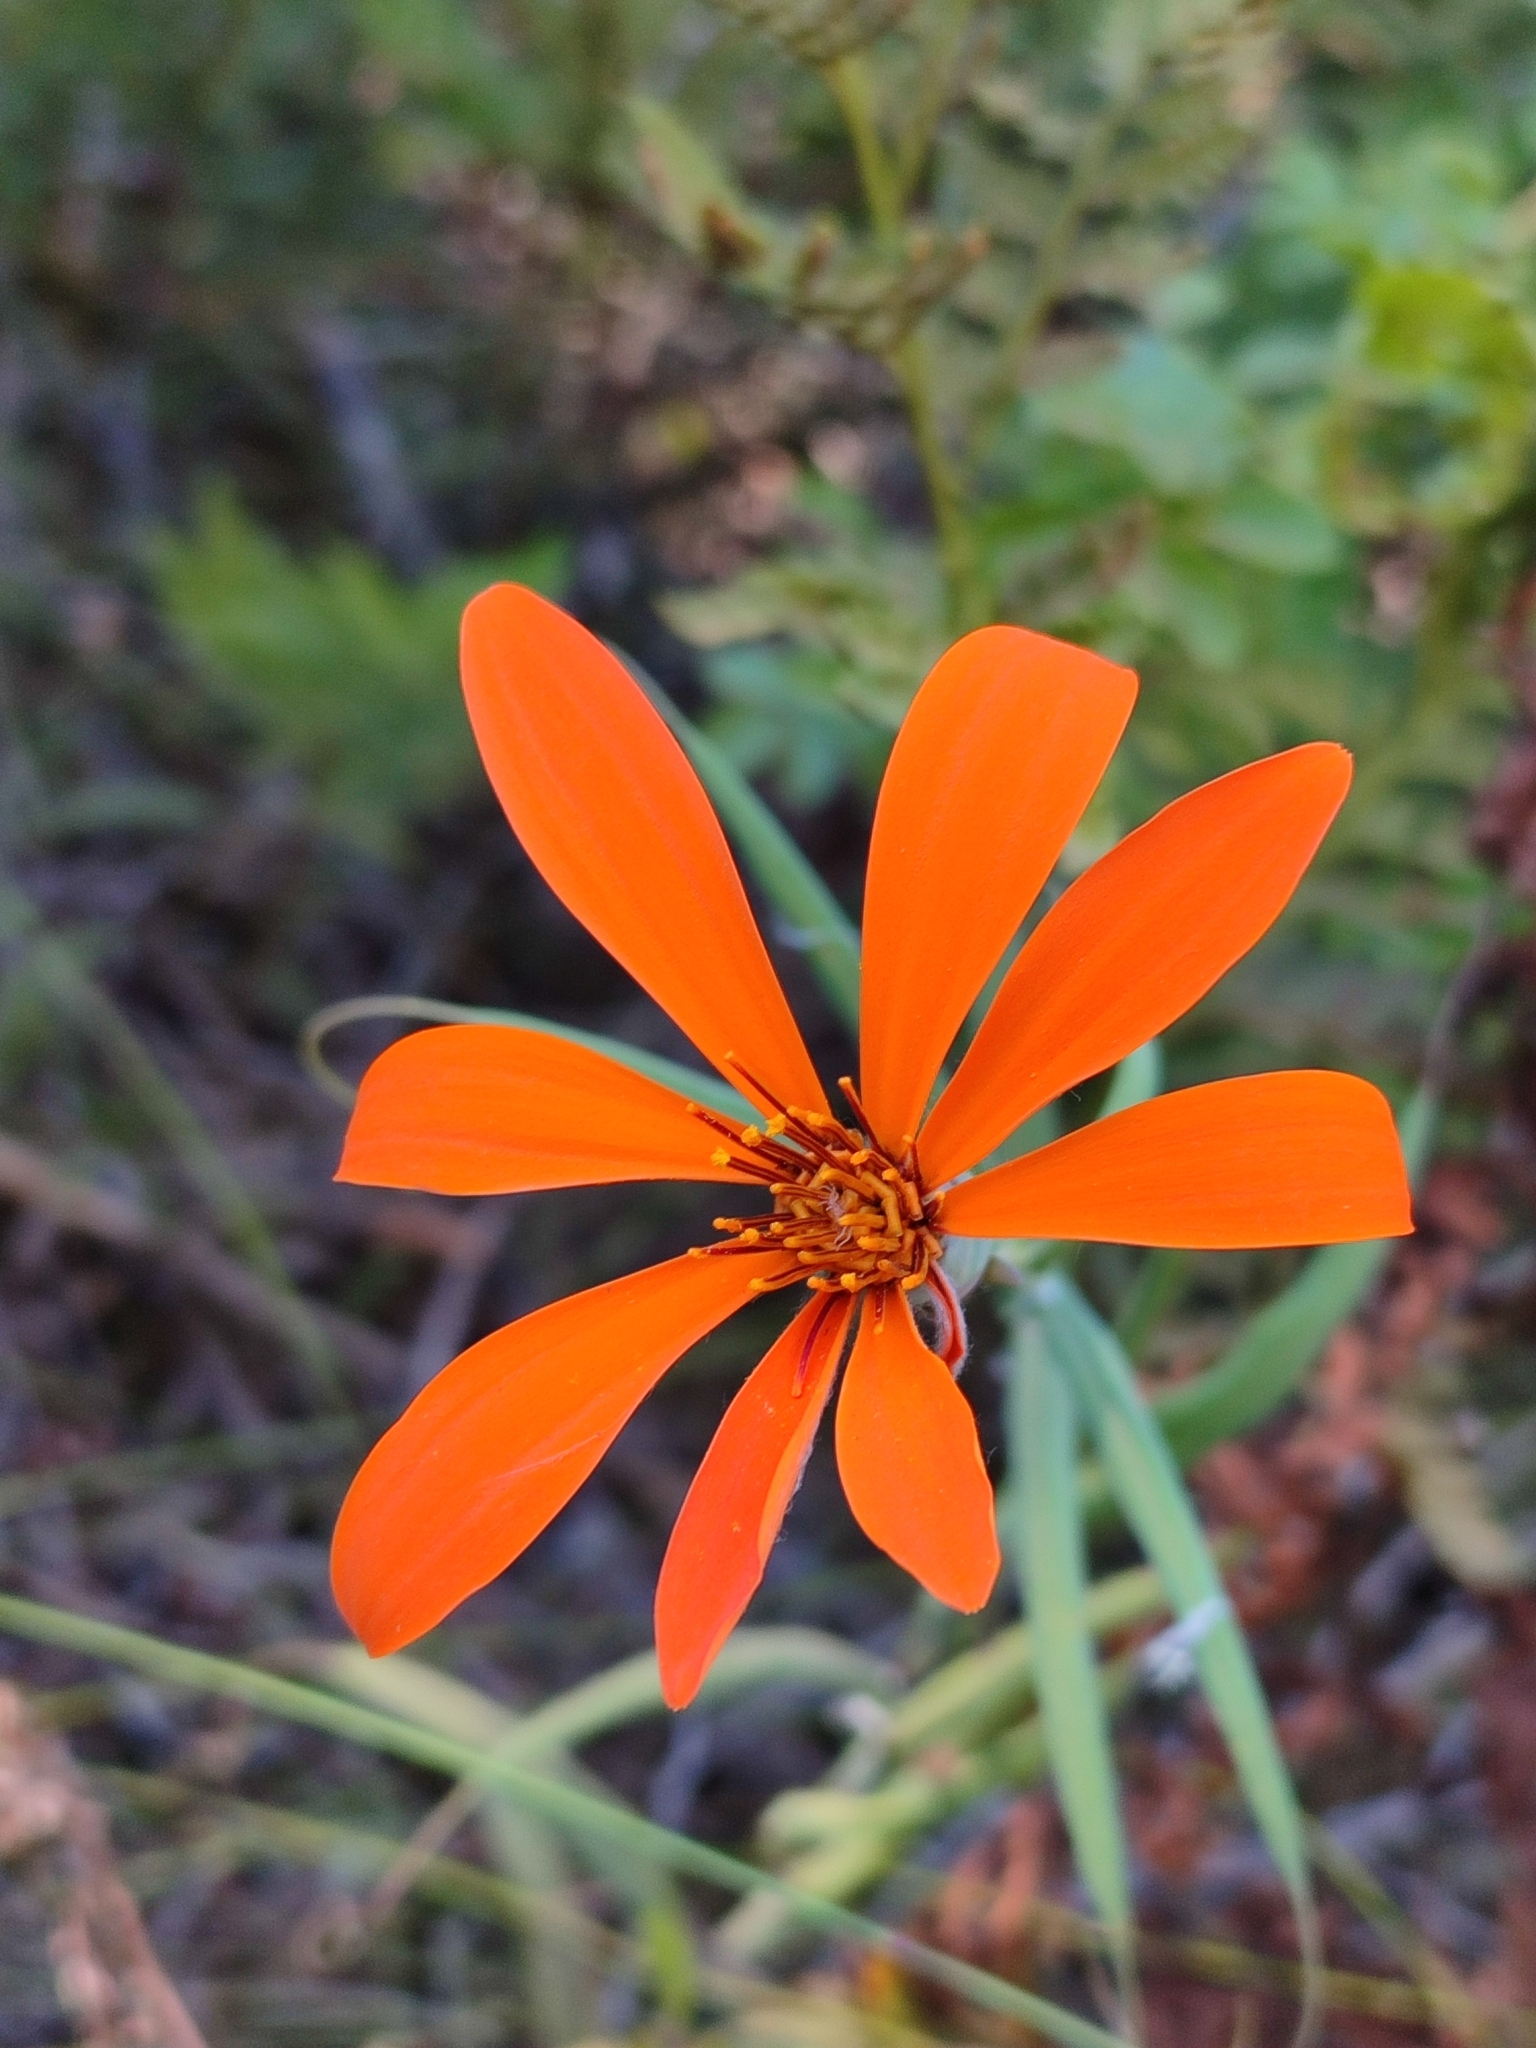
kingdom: Plantae
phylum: Tracheophyta
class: Magnoliopsida
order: Asterales
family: Asteraceae
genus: Mutisia
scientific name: Mutisia decurrens
